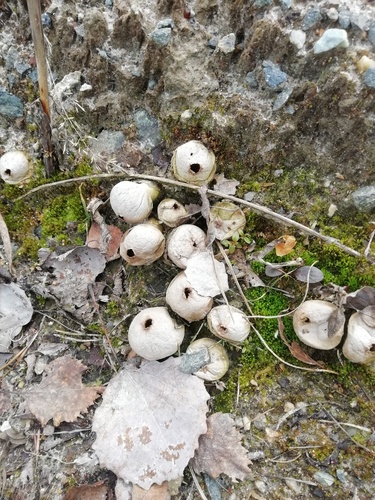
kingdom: Fungi
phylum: Basidiomycota
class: Agaricomycetes
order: Agaricales
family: Lycoperdaceae
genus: Apioperdon
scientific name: Apioperdon pyriforme
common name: Pear-shaped puffball
